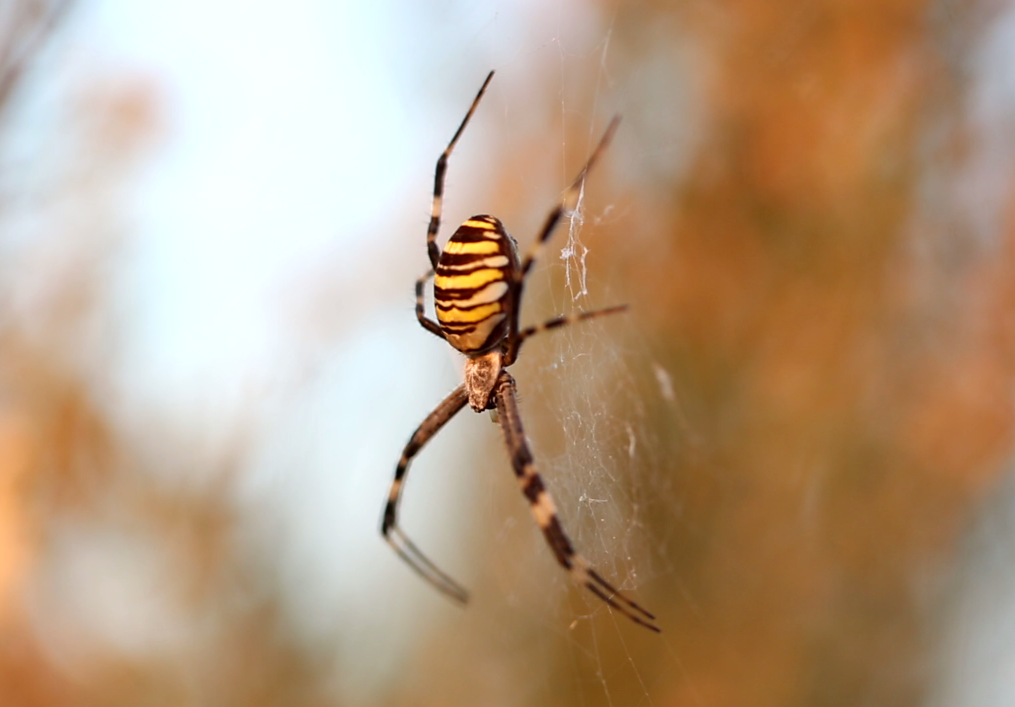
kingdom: Animalia
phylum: Arthropoda
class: Arachnida
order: Araneae
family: Araneidae
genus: Argiope
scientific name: Argiope bruennichi
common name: Wasp spider
